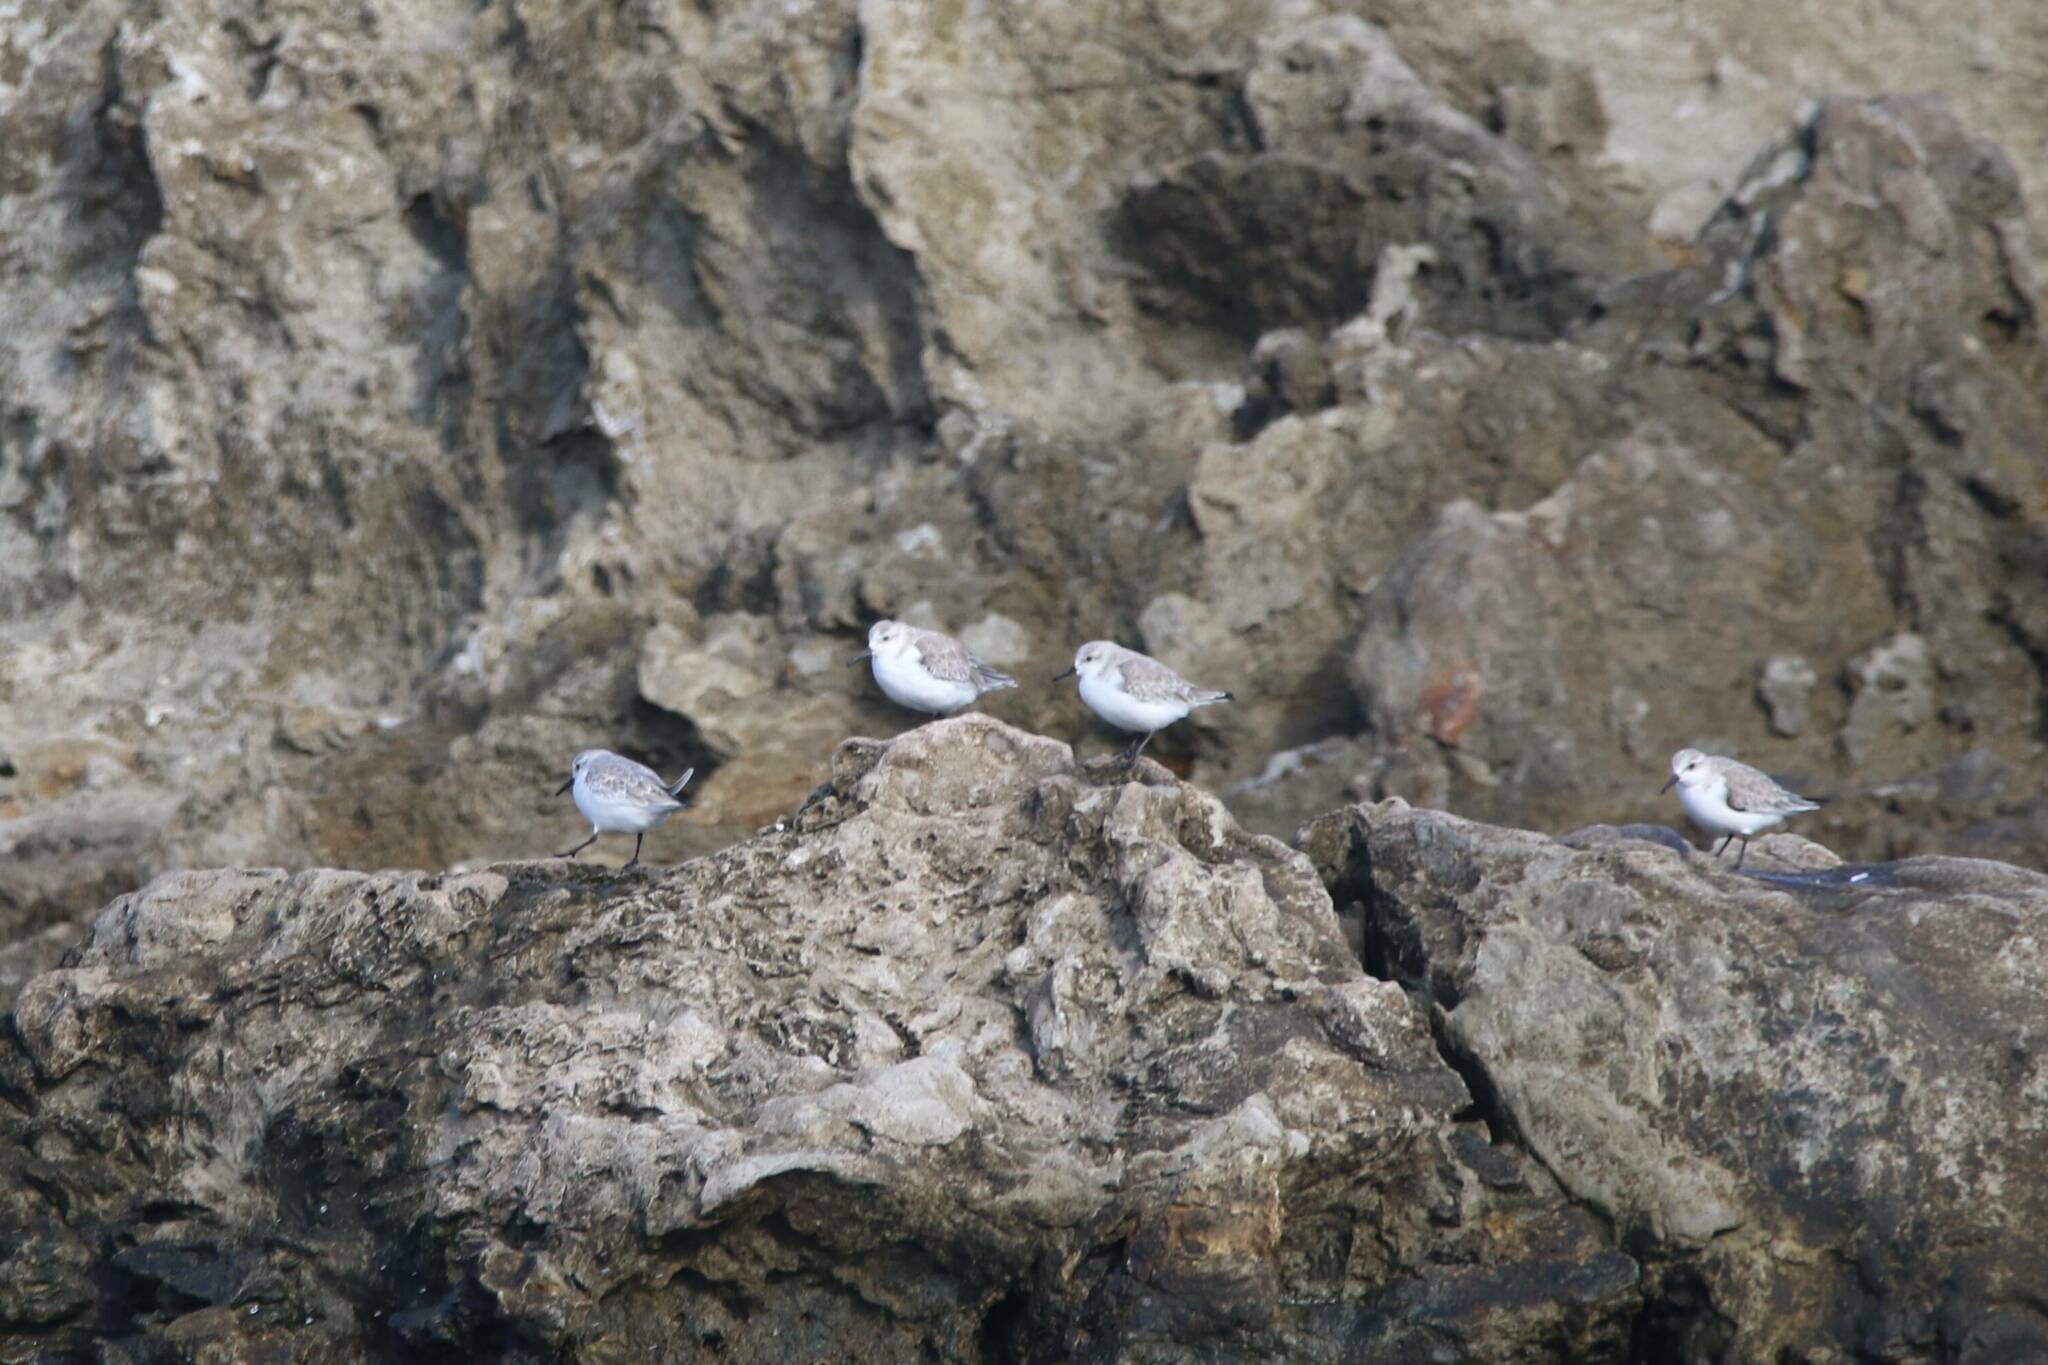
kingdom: Animalia
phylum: Chordata
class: Aves
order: Charadriiformes
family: Scolopacidae
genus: Calidris
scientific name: Calidris alba
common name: Sanderling
